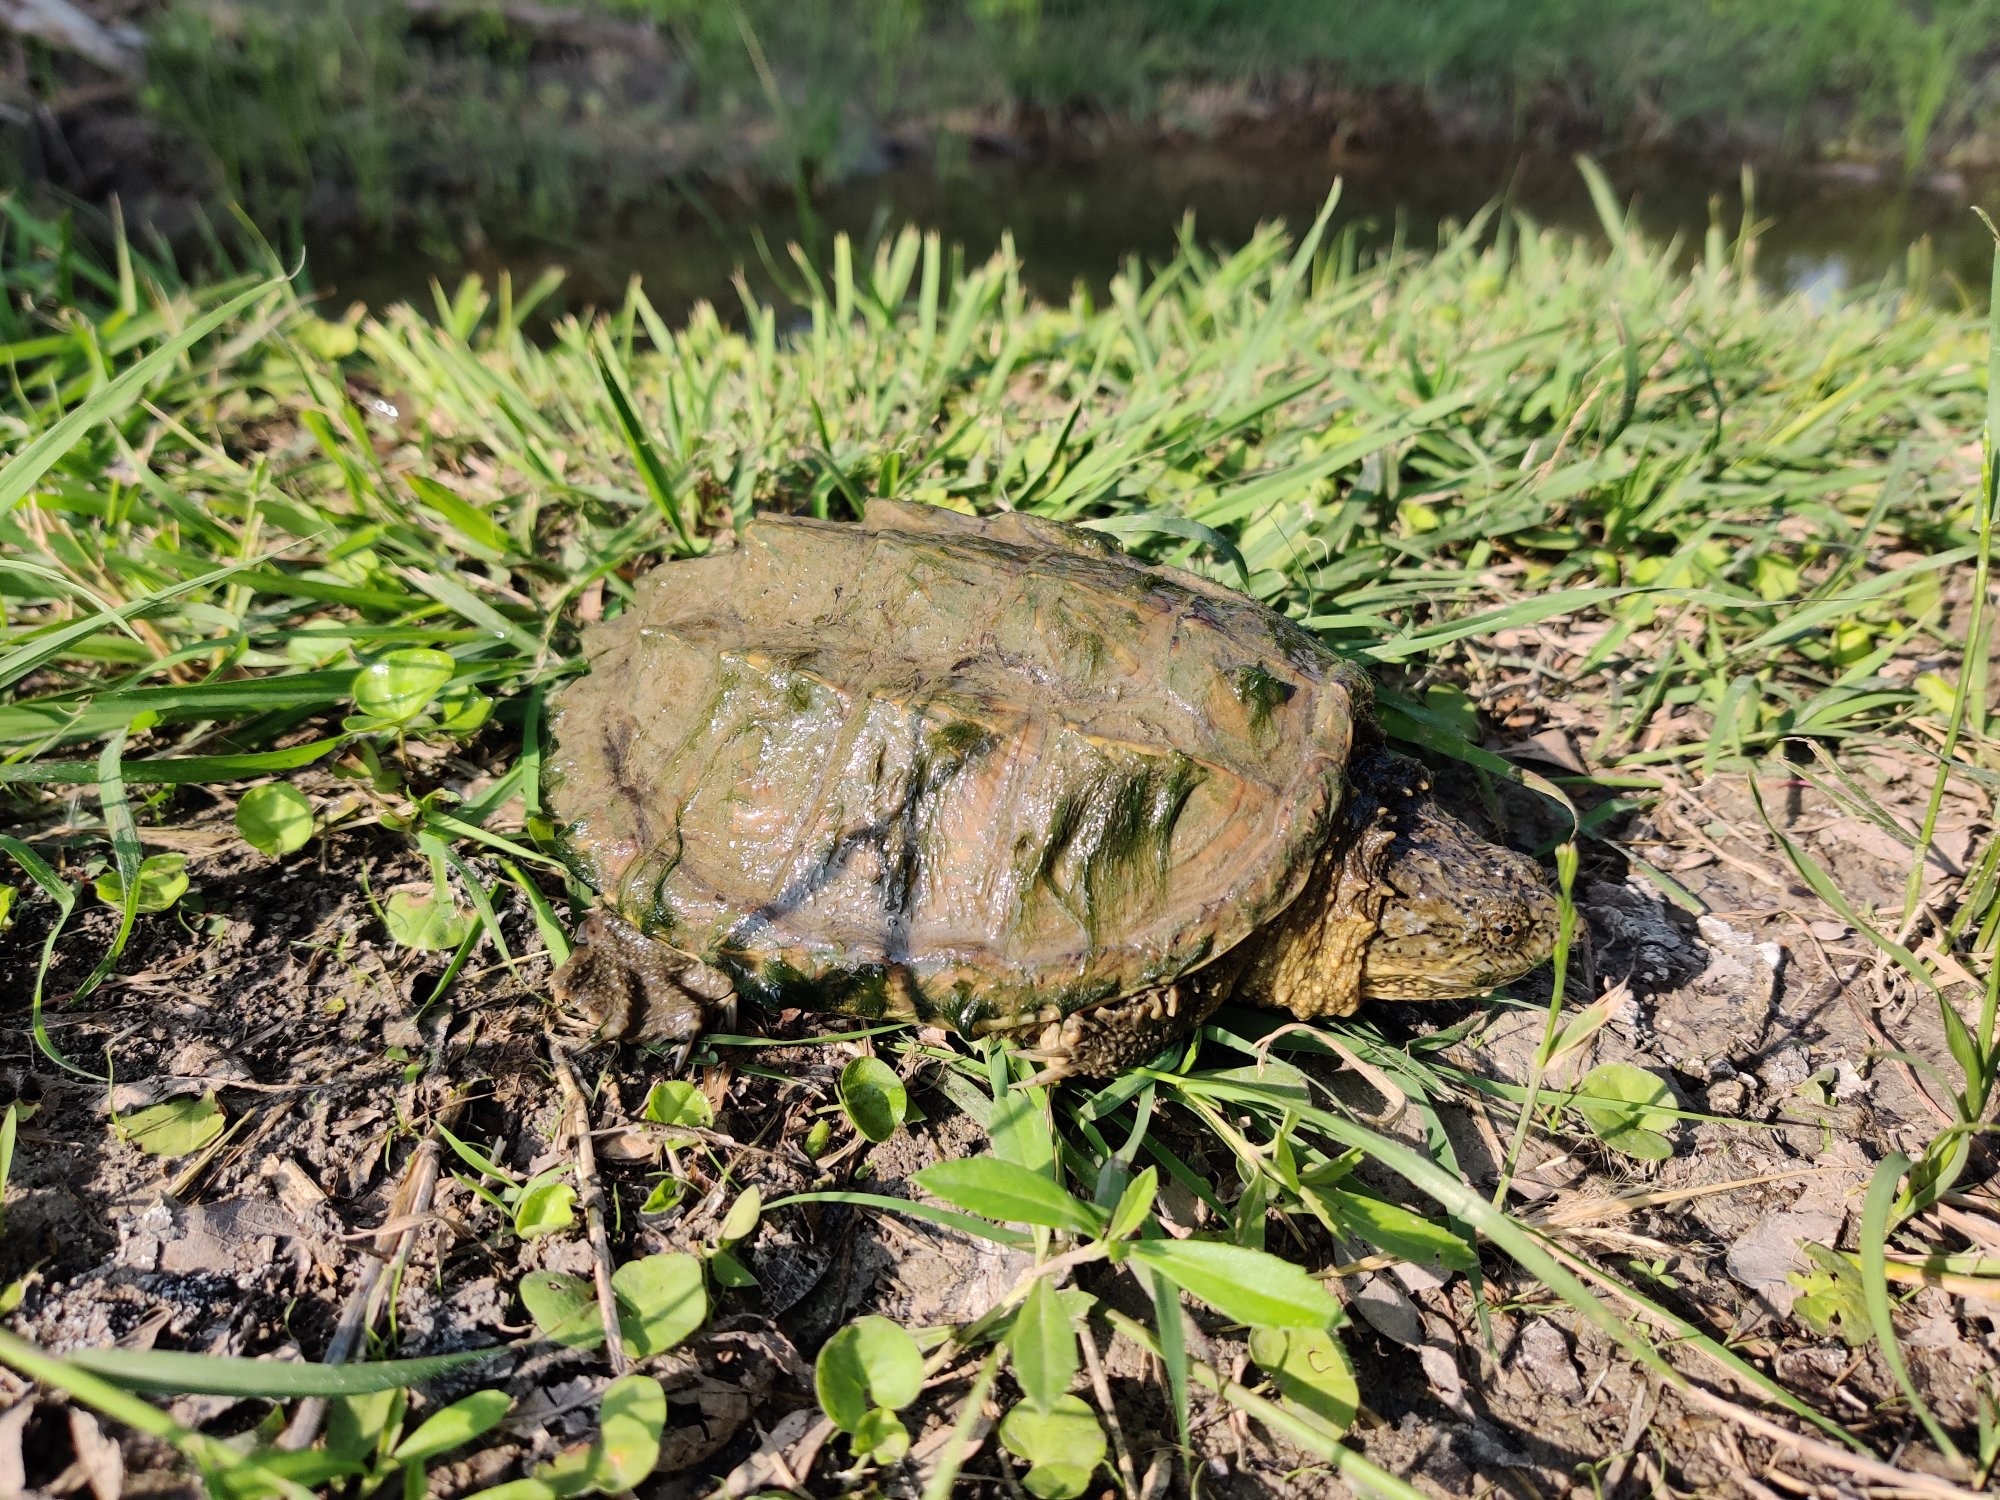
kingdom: Animalia
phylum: Chordata
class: Testudines
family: Chelydridae
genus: Chelydra
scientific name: Chelydra serpentina
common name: Common snapping turtle
